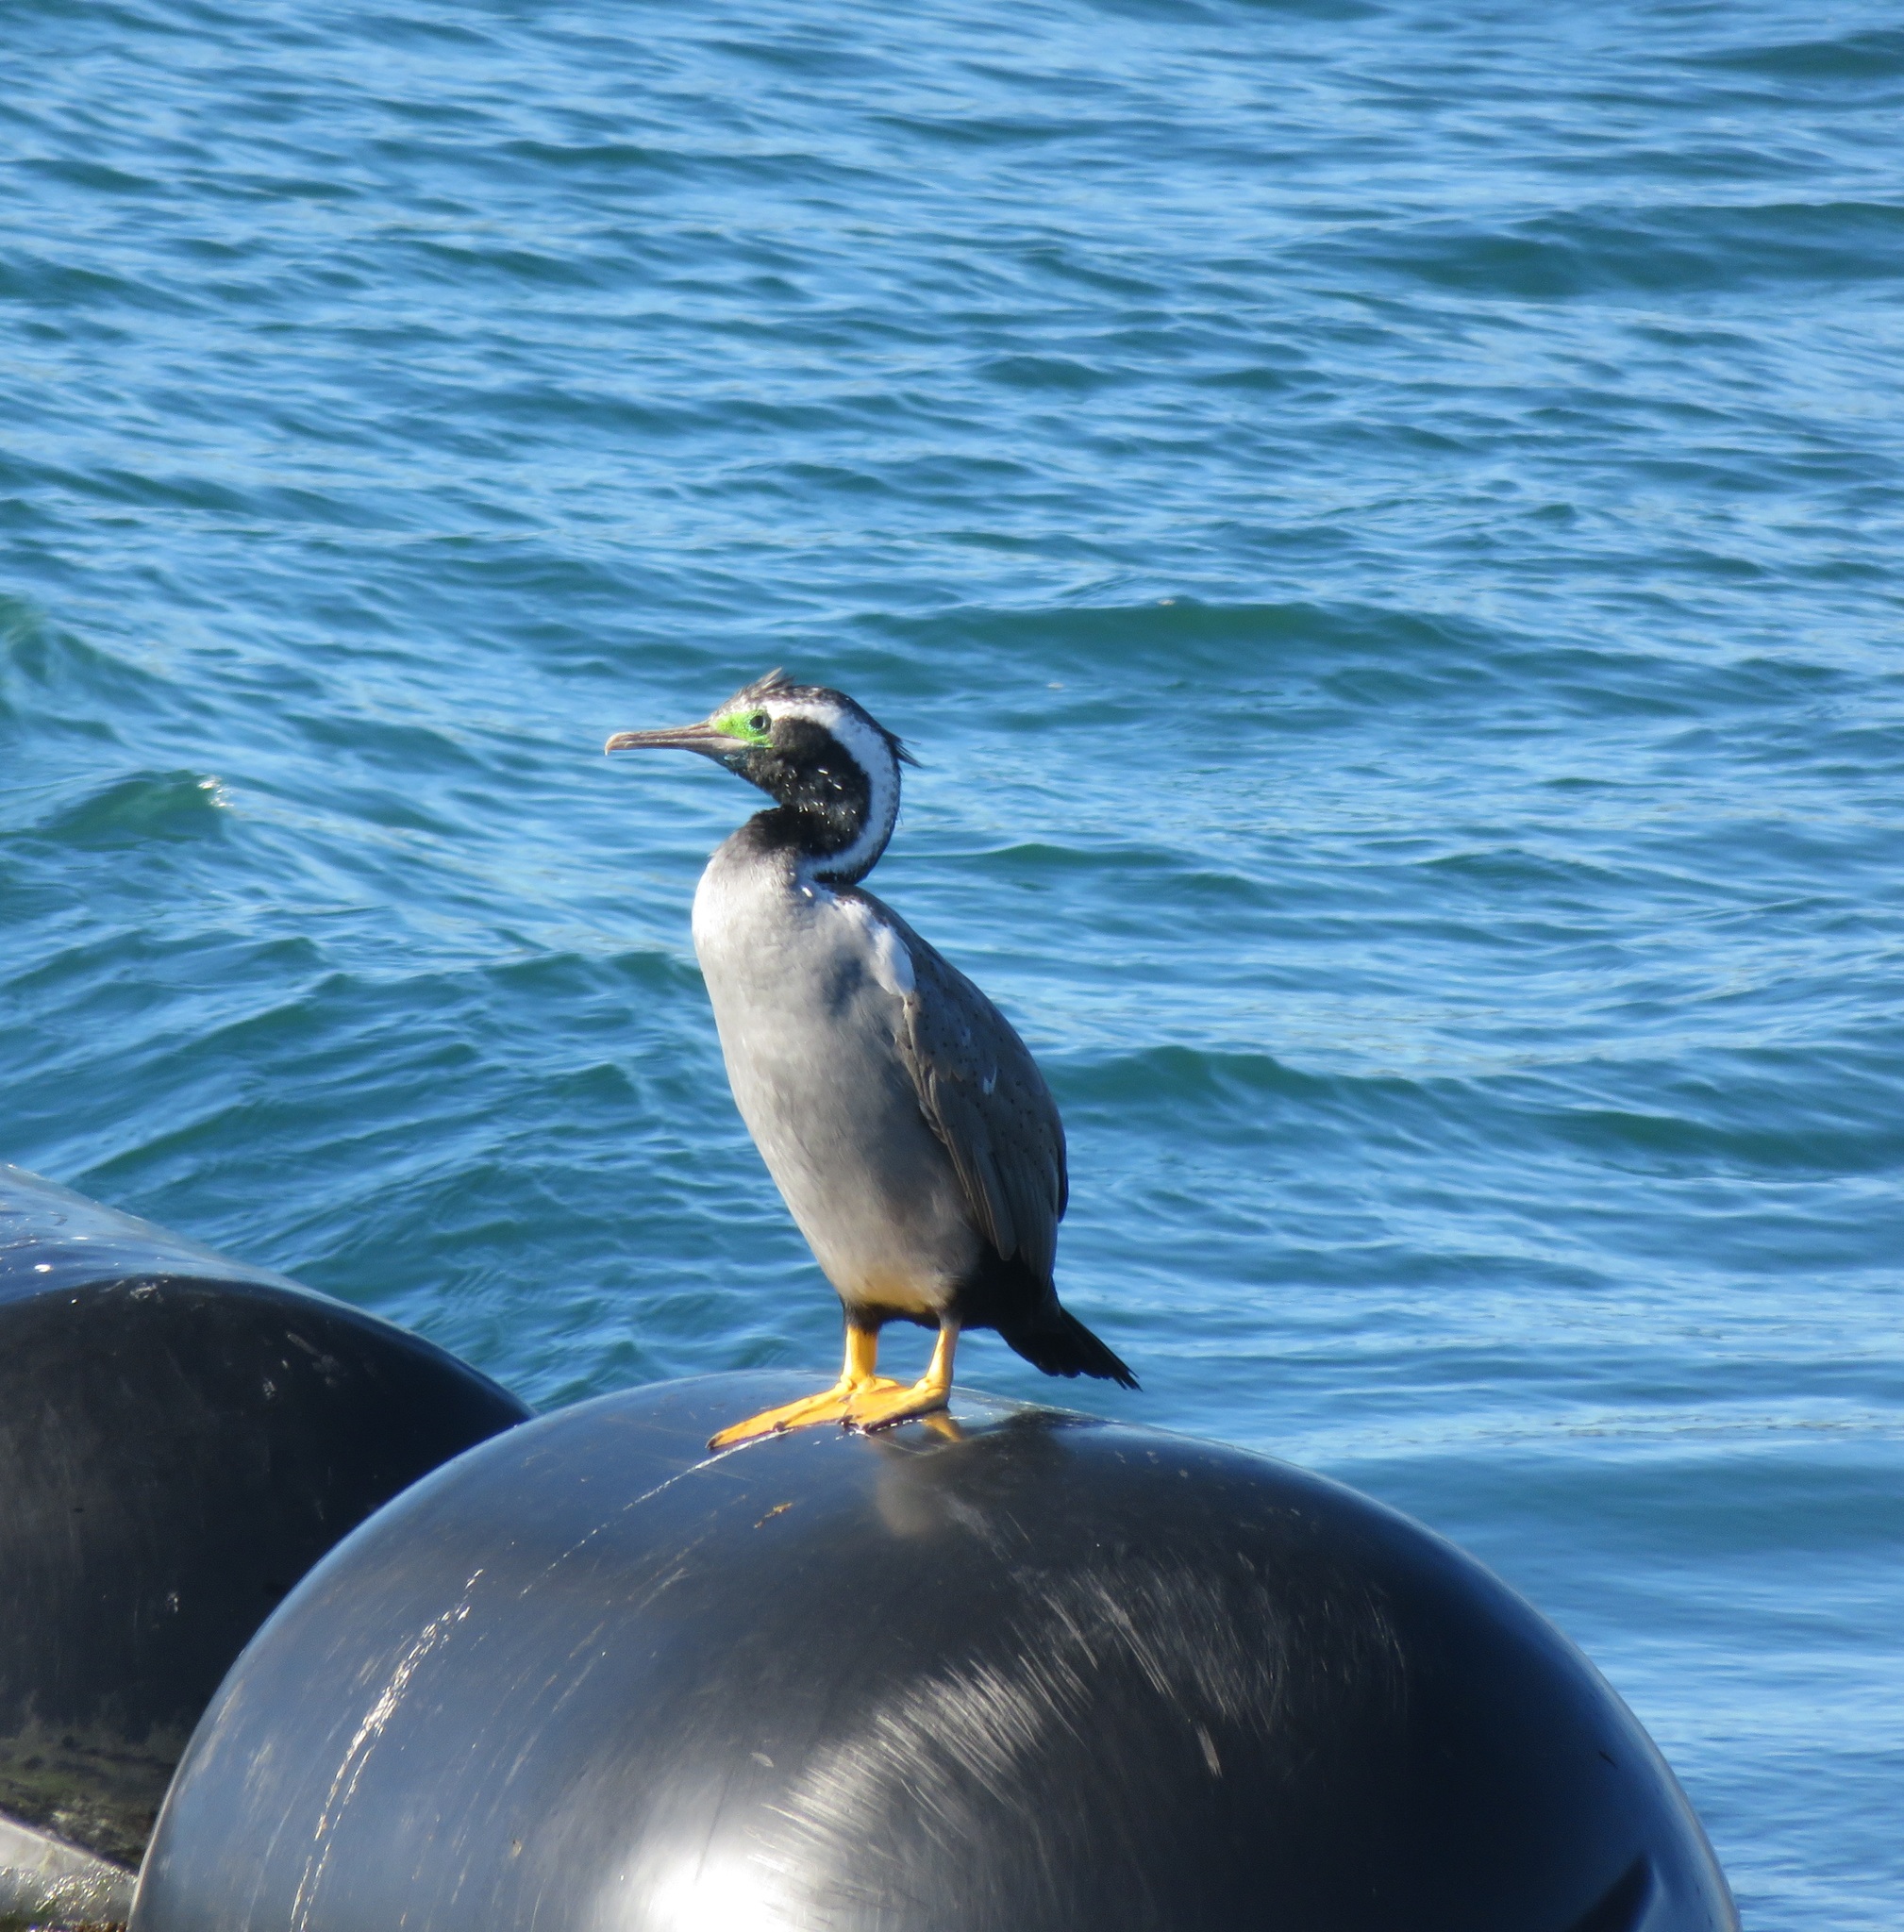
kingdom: Animalia
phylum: Chordata
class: Aves
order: Suliformes
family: Phalacrocoracidae
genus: Phalacrocorax
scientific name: Phalacrocorax punctatus
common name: Spotted shag
